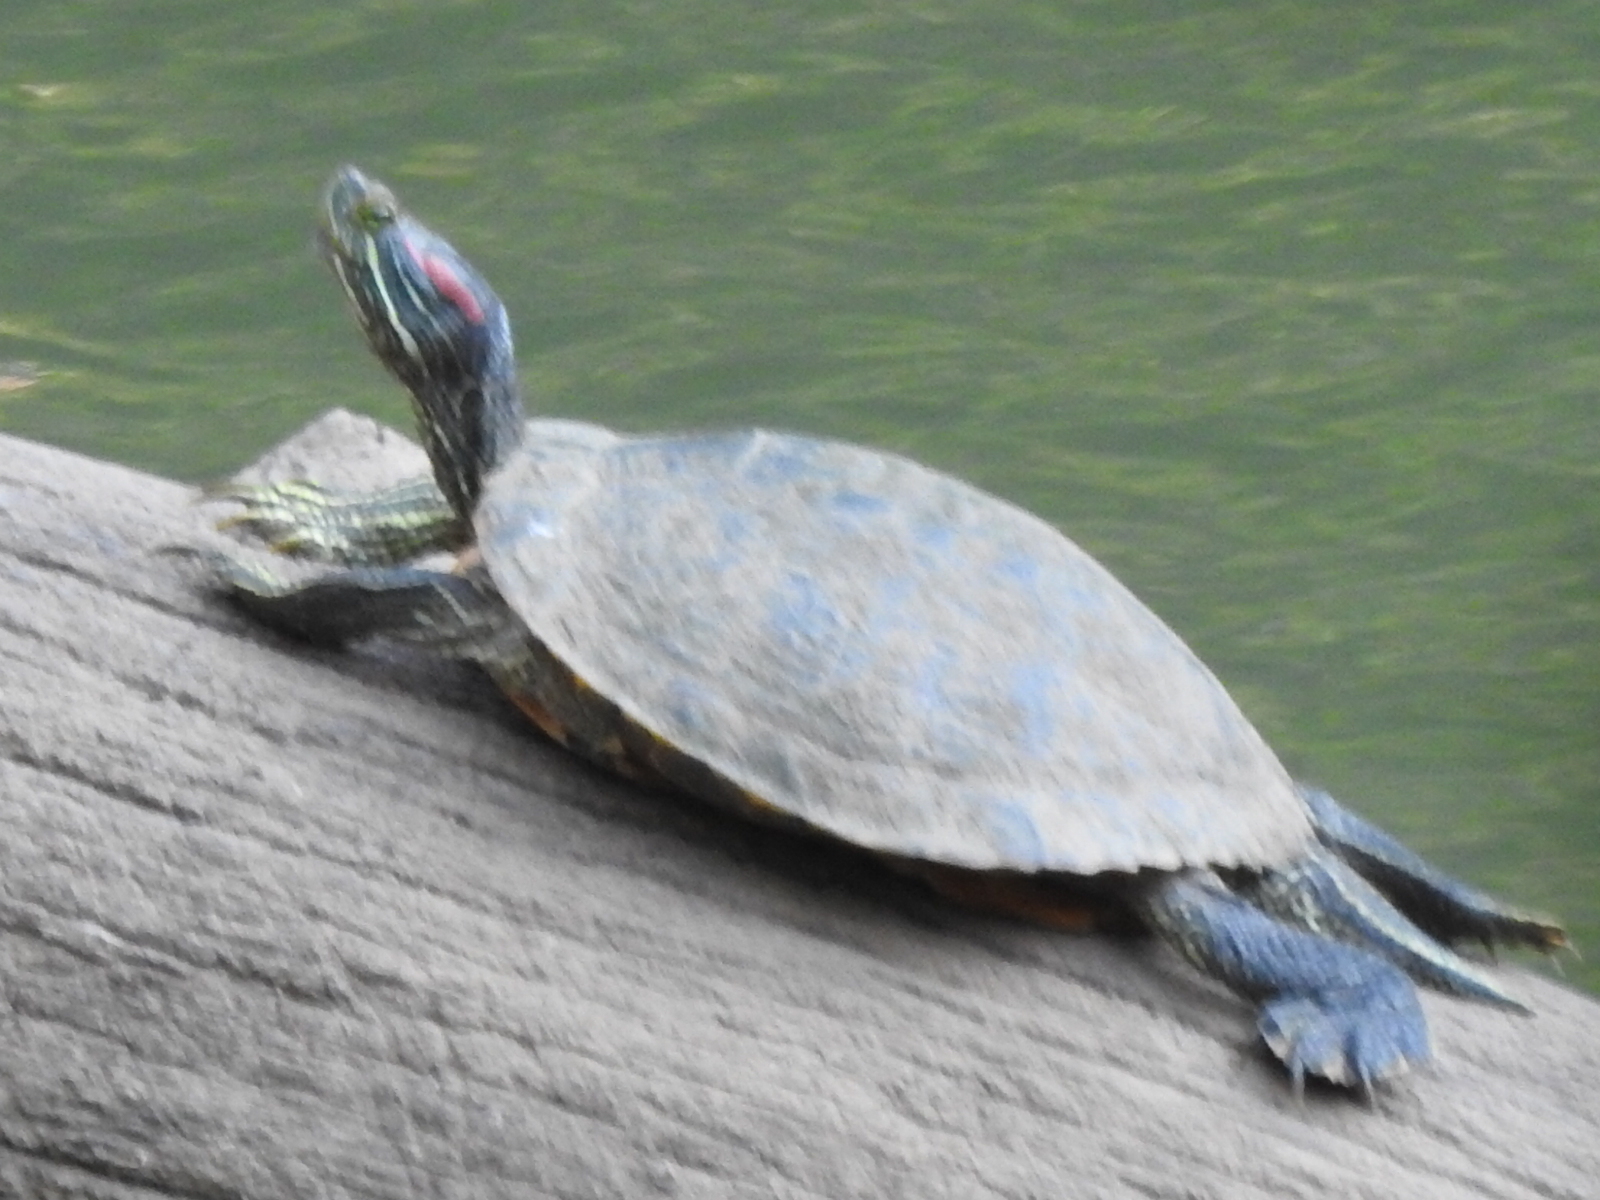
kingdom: Animalia
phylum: Chordata
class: Testudines
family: Emydidae
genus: Trachemys
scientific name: Trachemys scripta
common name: Slider
